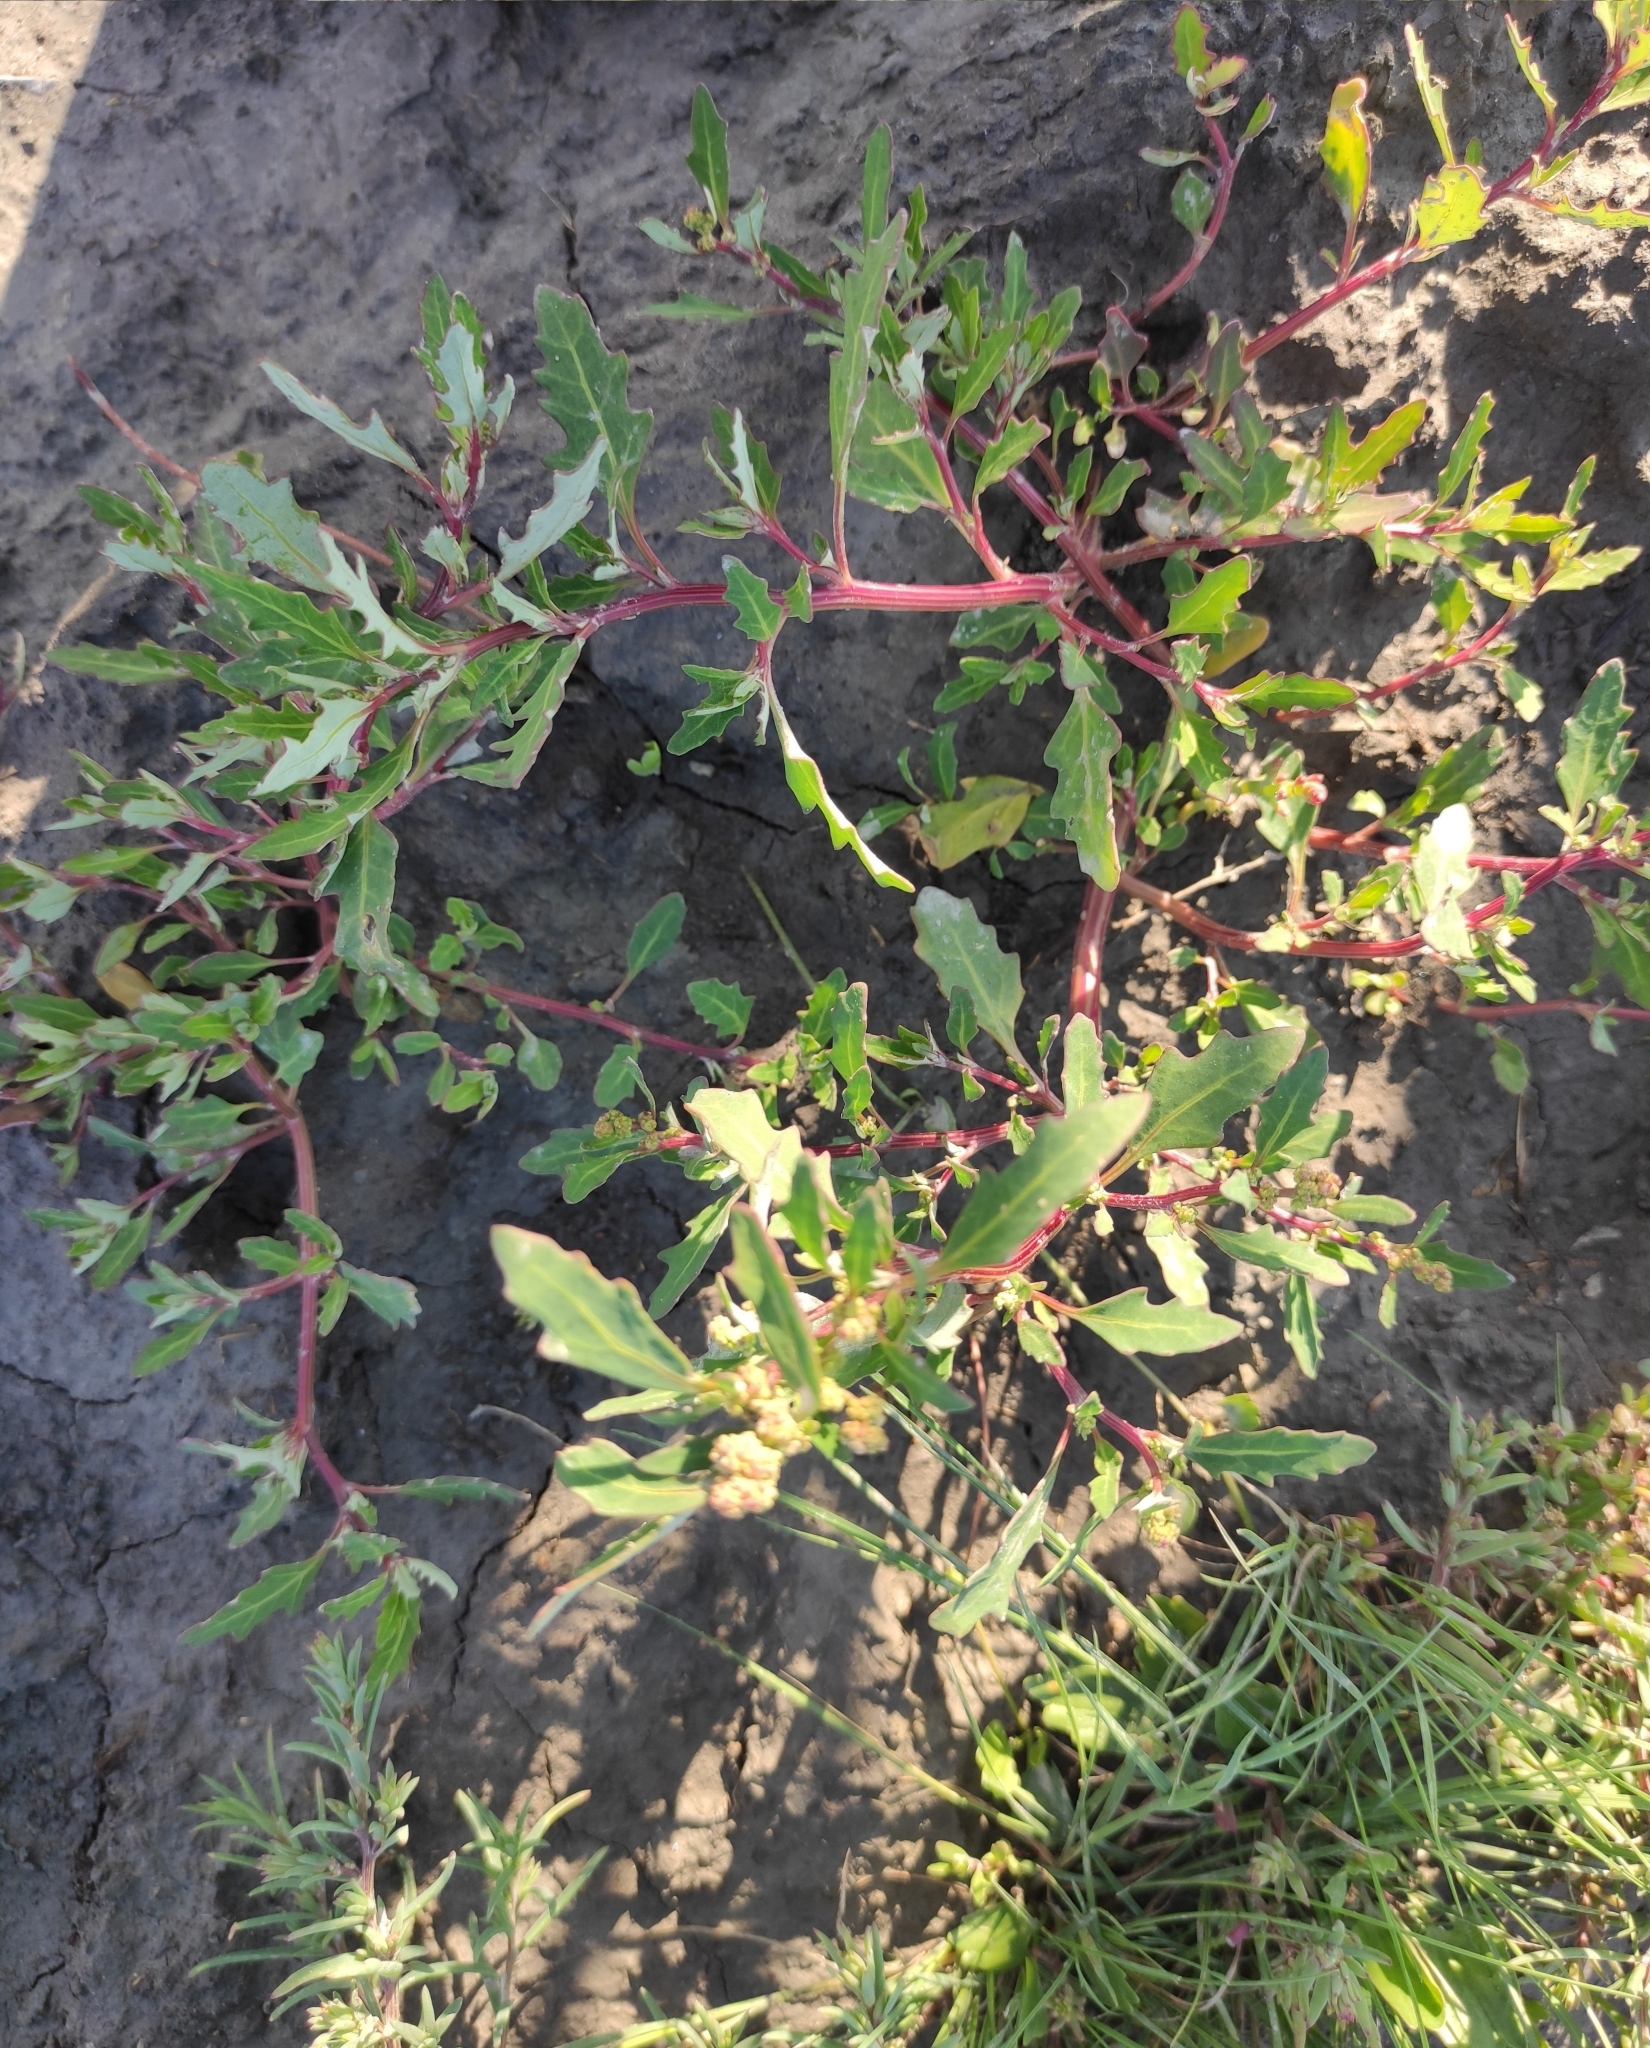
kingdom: Plantae
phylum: Tracheophyta
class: Magnoliopsida
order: Caryophyllales
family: Amaranthaceae
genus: Oxybasis
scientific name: Oxybasis glauca
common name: Glaucous goosefoot
